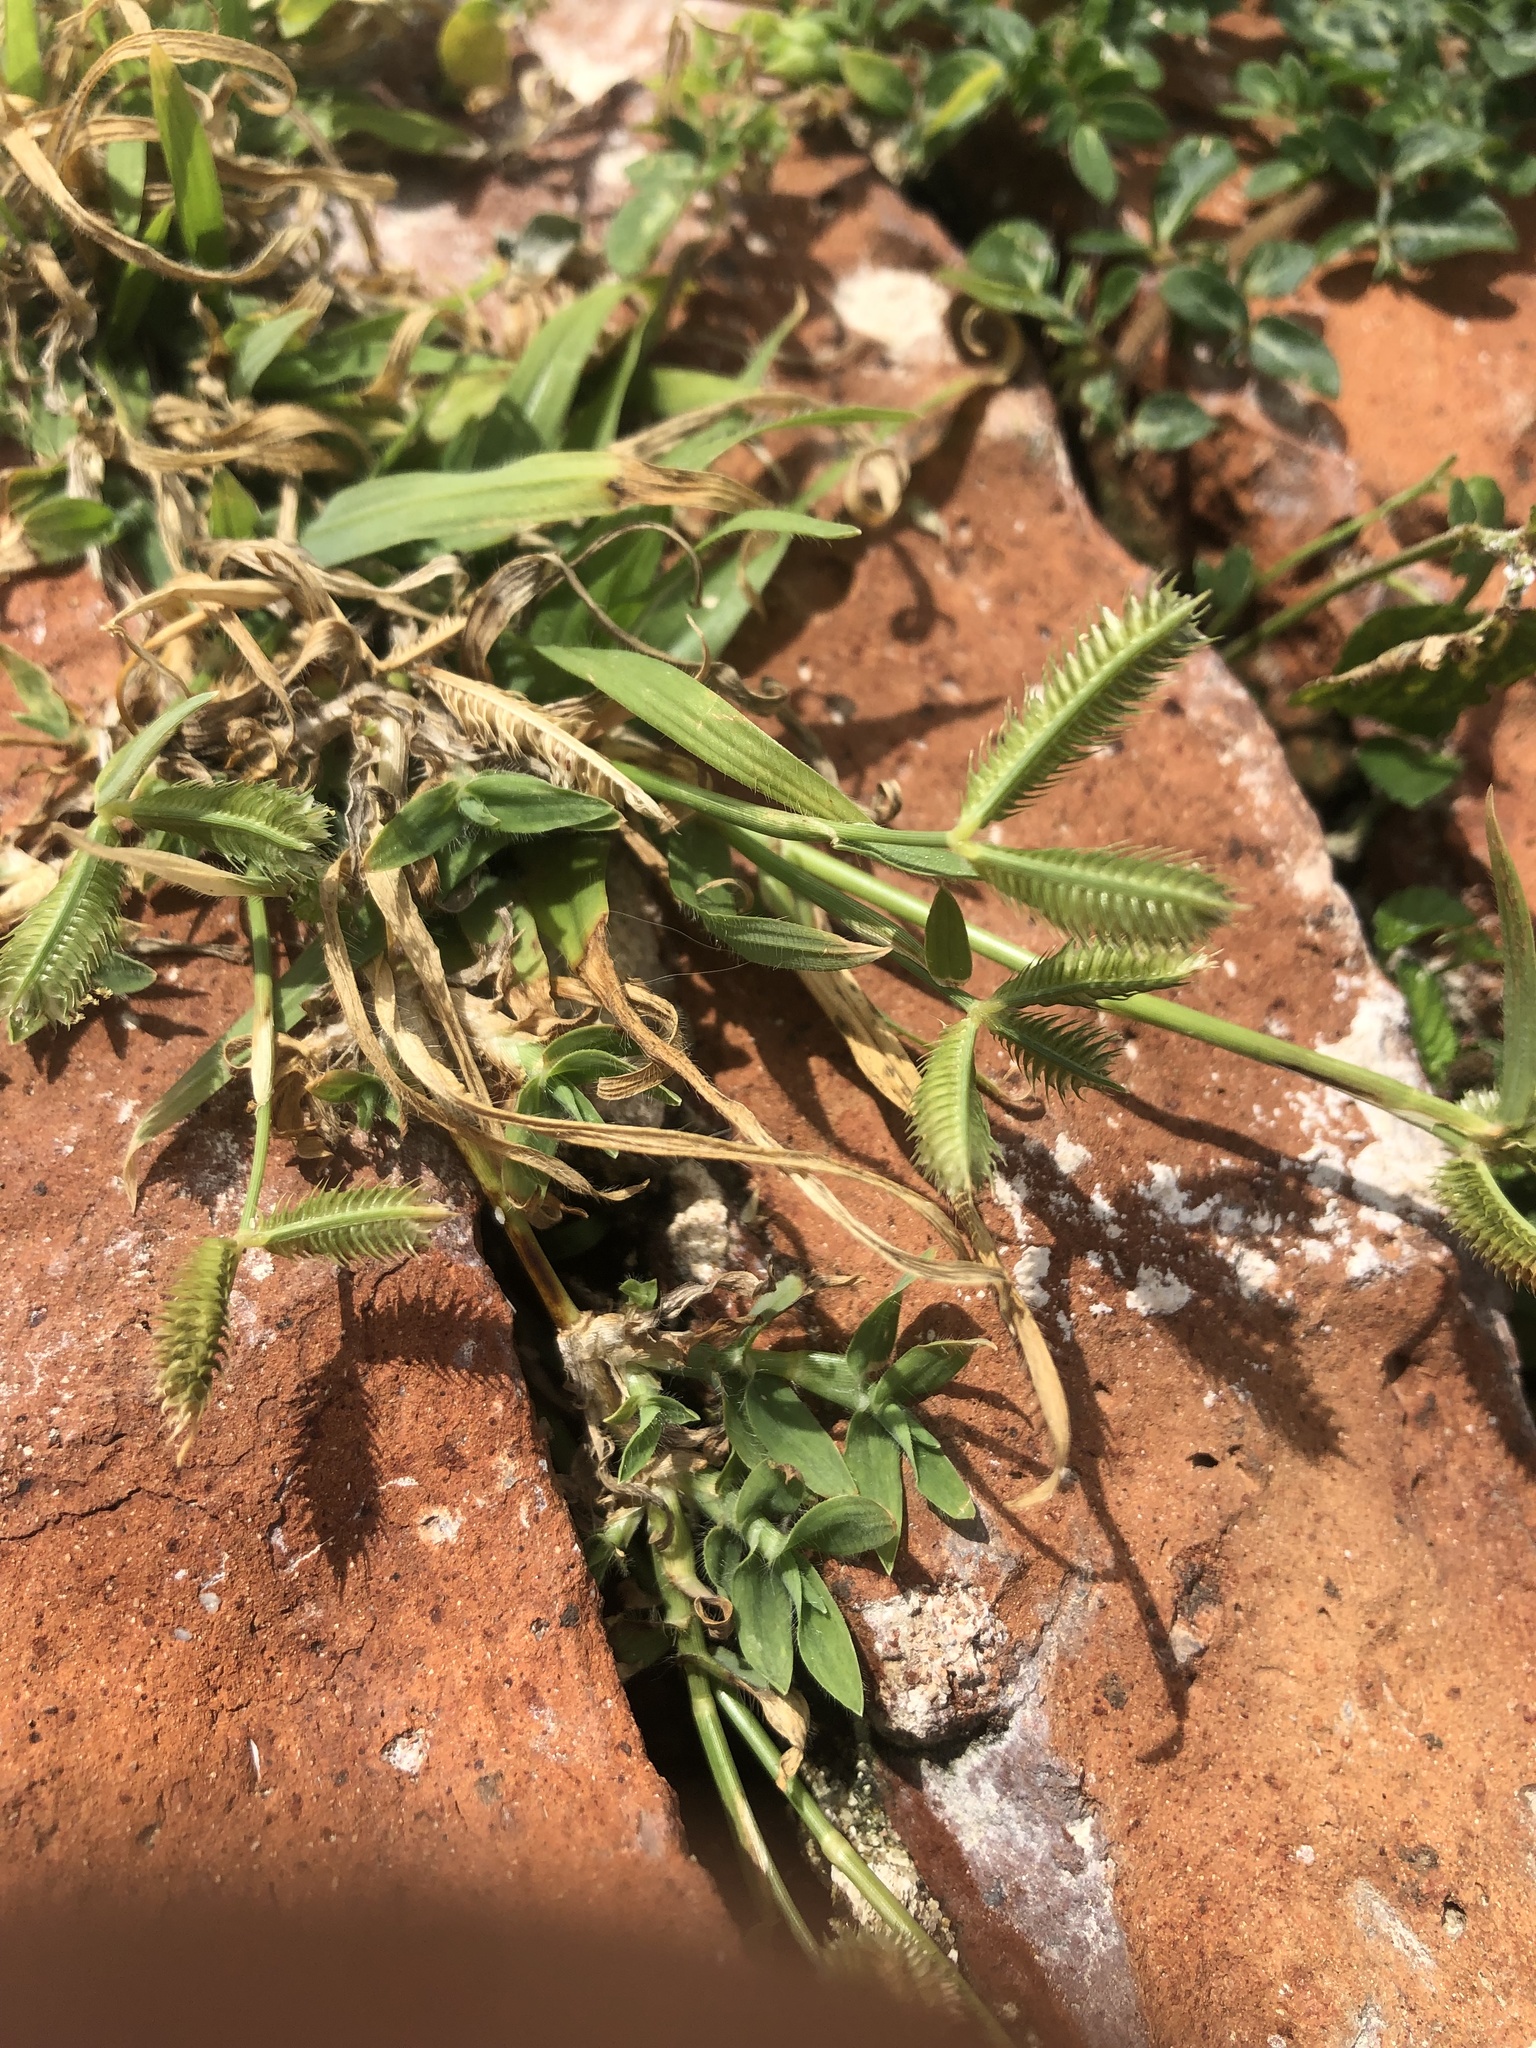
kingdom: Plantae
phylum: Tracheophyta
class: Liliopsida
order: Poales
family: Poaceae
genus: Dactyloctenium
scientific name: Dactyloctenium aegyptium
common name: Egyptian grass
